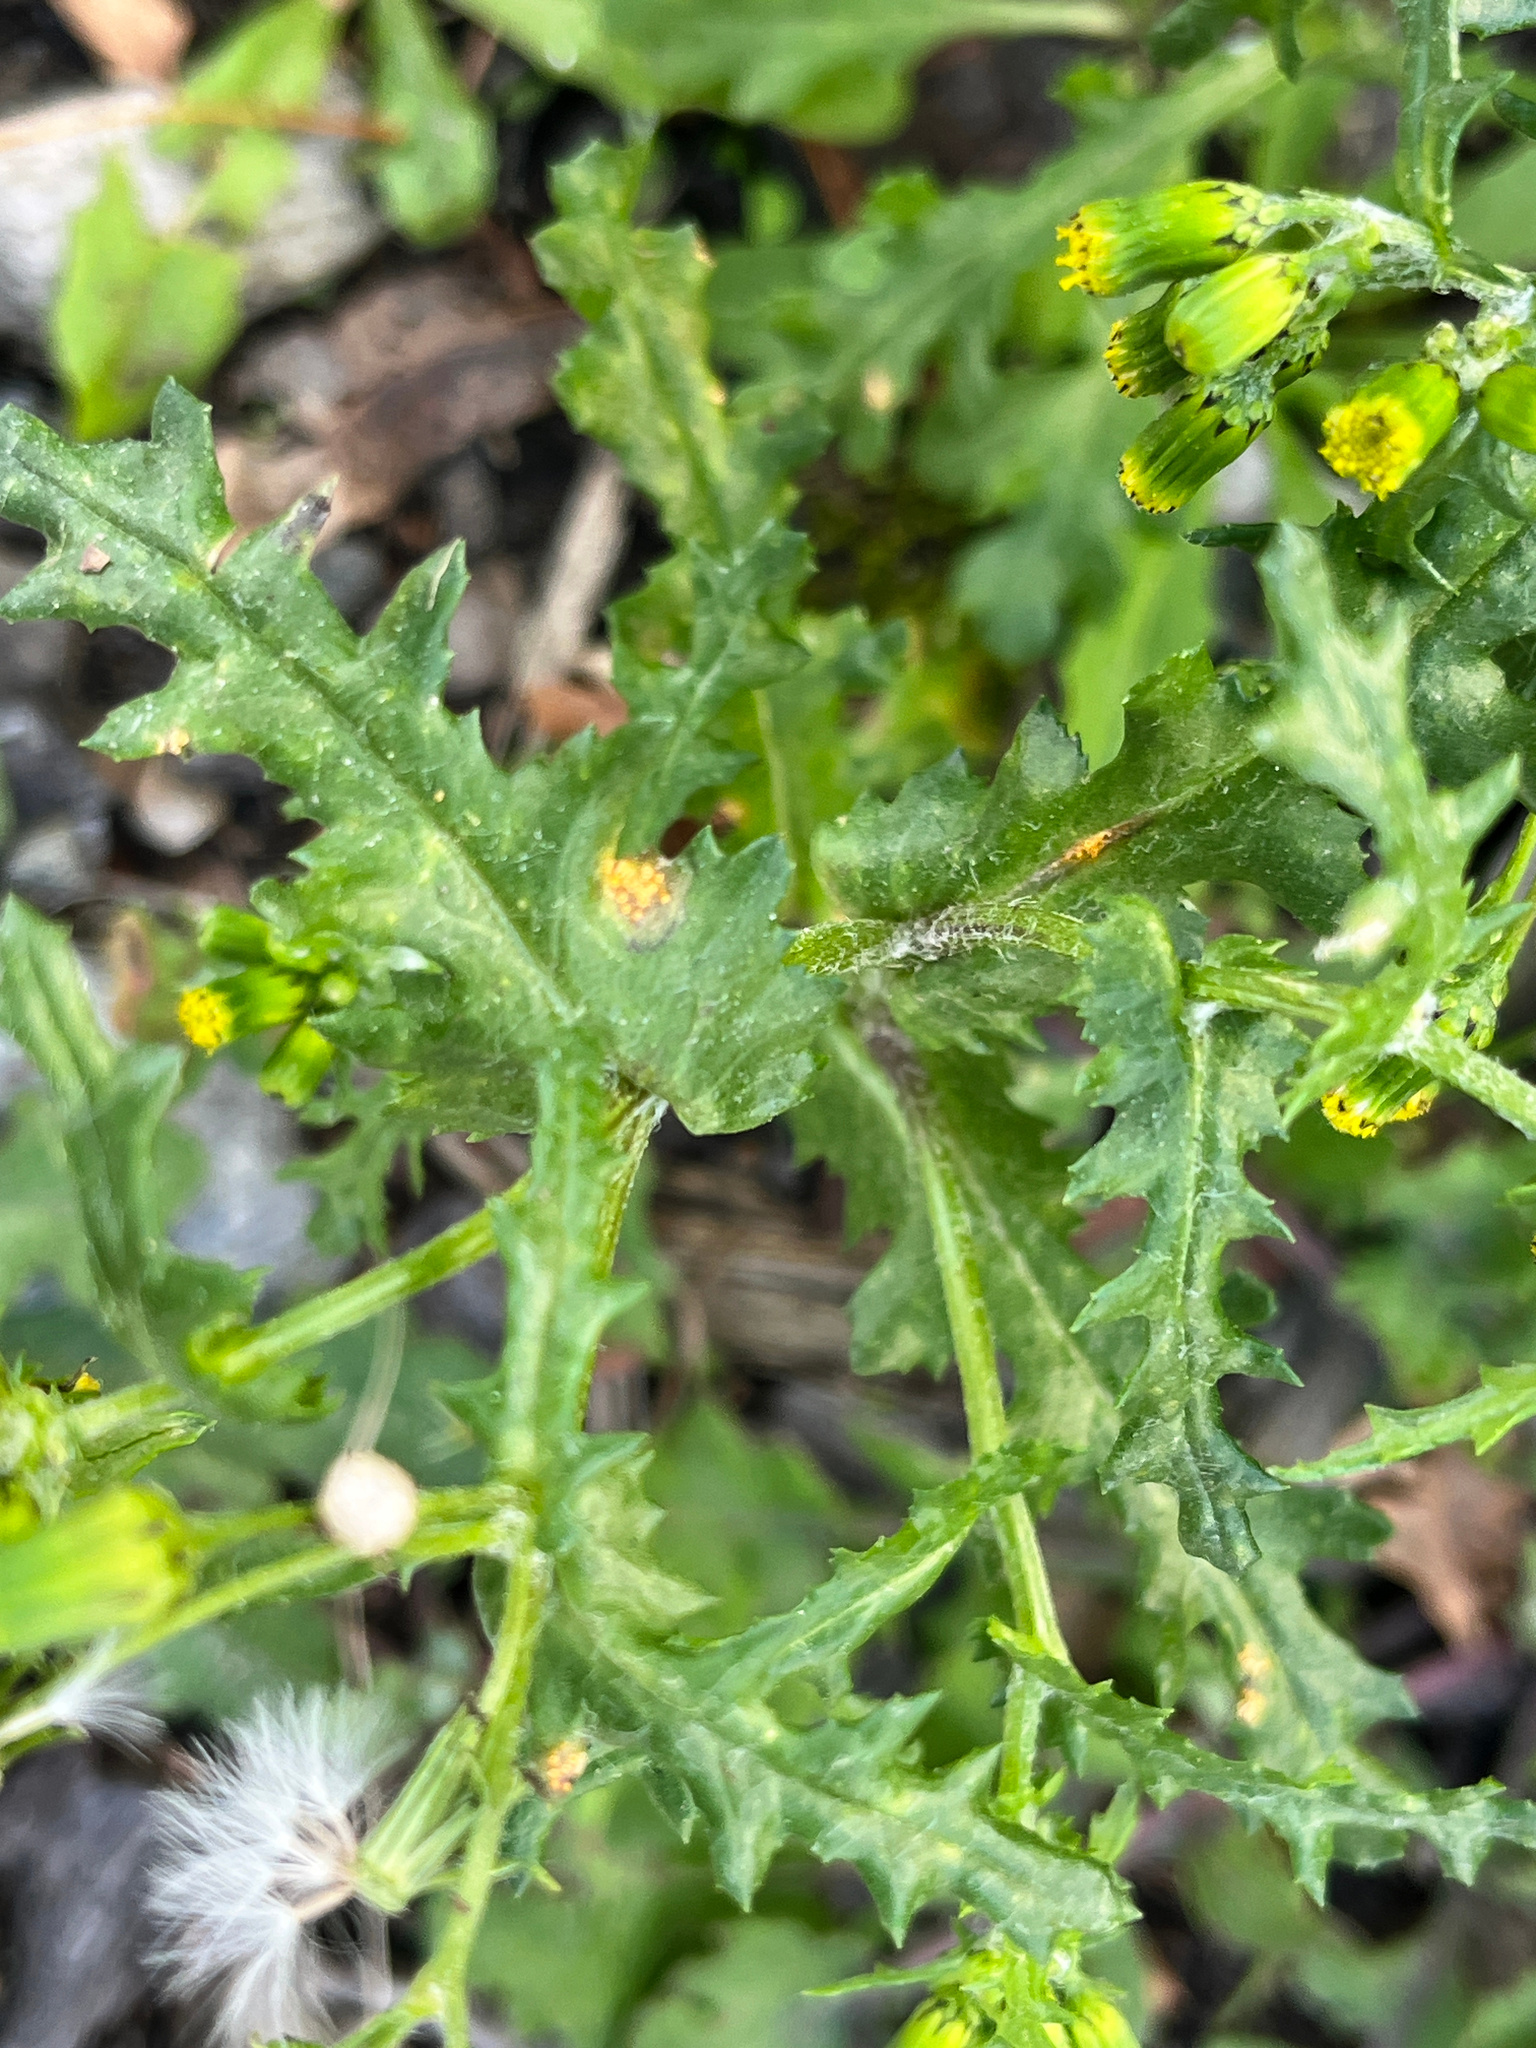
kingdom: Fungi
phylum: Basidiomycota
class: Pucciniomycetes
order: Pucciniales
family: Pucciniaceae
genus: Puccinia
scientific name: Puccinia lagenophorae
